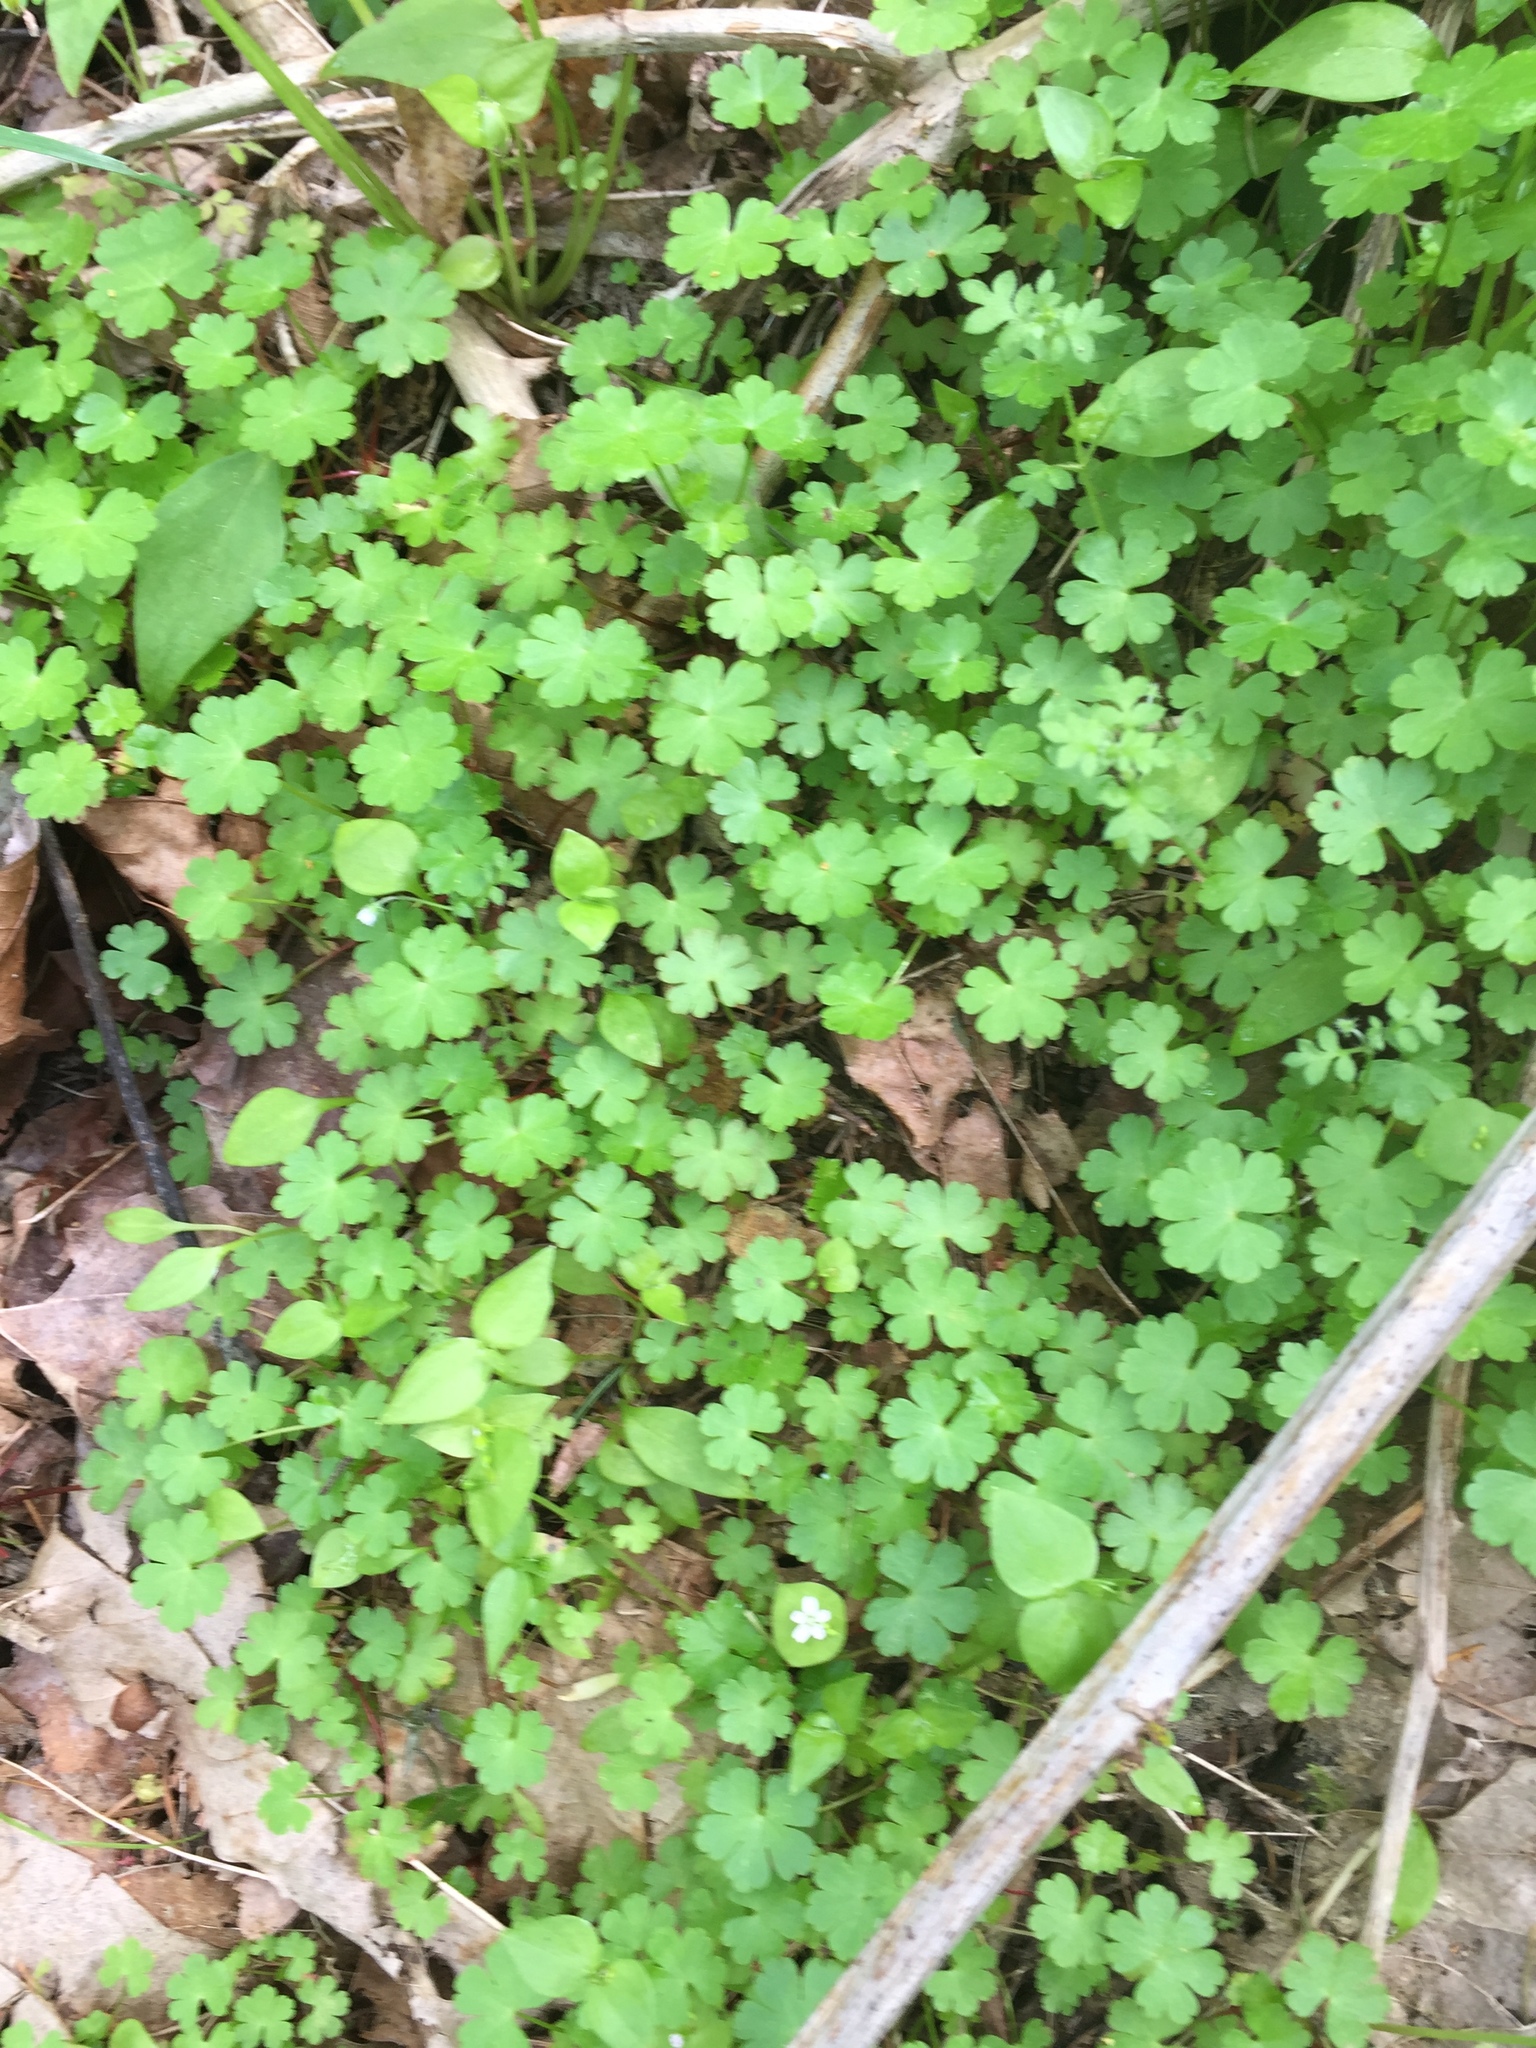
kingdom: Plantae
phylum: Tracheophyta
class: Magnoliopsida
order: Geraniales
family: Geraniaceae
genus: Geranium
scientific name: Geranium lucidum
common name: Shining crane's-bill
